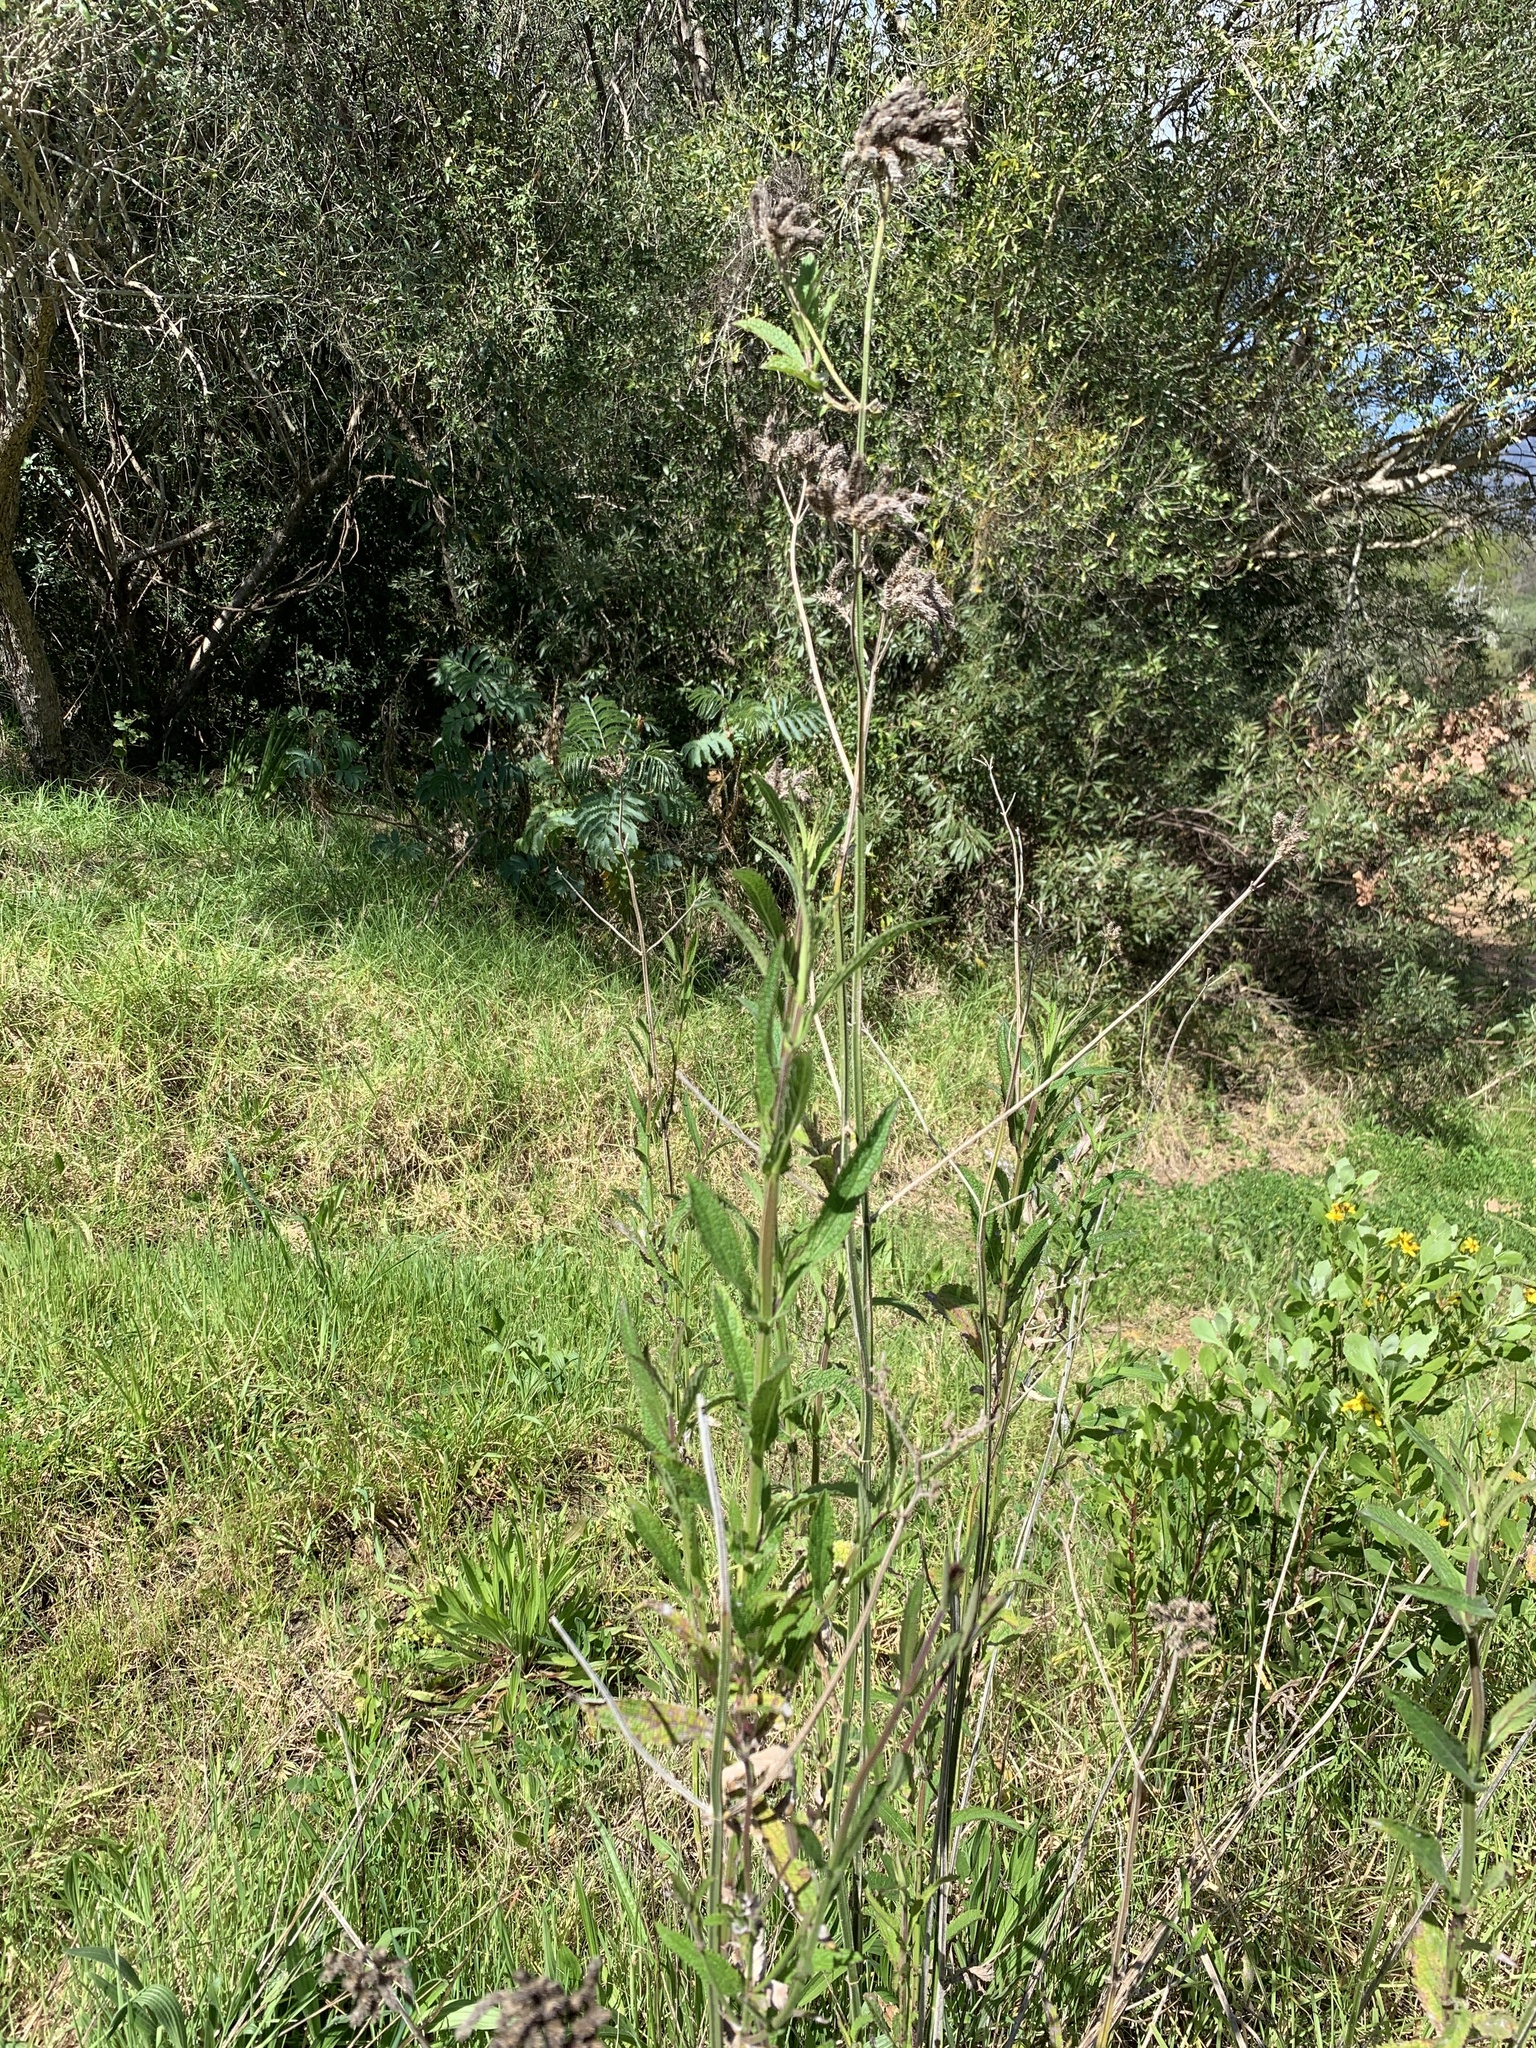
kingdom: Plantae
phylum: Tracheophyta
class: Magnoliopsida
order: Lamiales
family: Verbenaceae
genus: Verbena
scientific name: Verbena bonariensis
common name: Purpletop vervain
